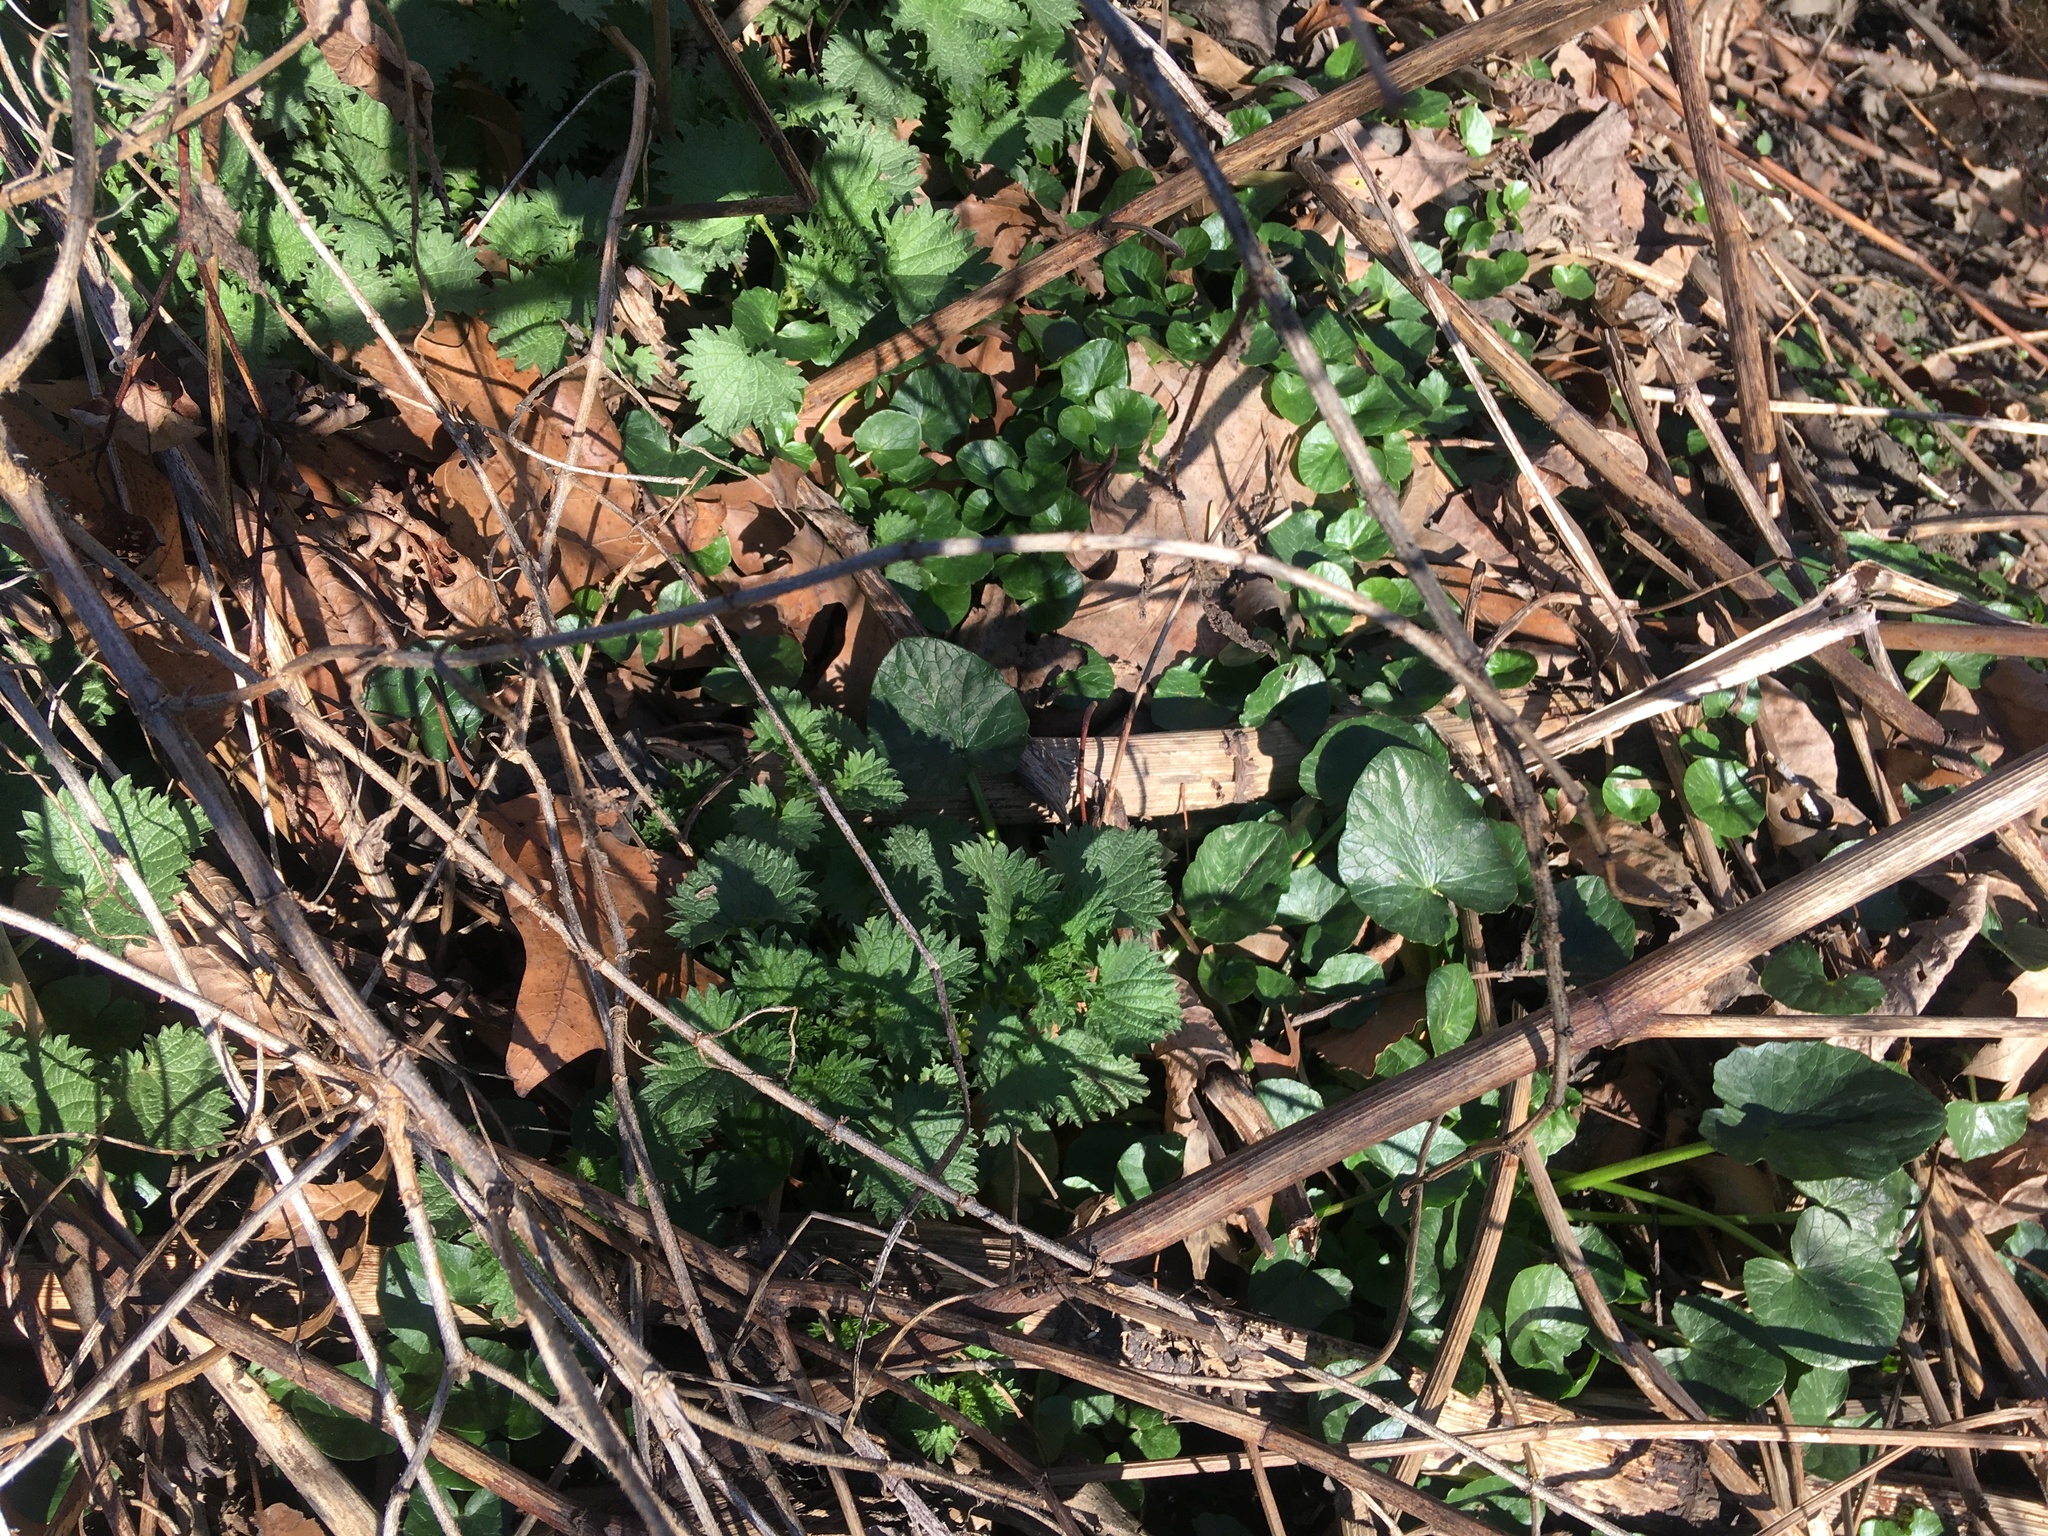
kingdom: Plantae
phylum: Tracheophyta
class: Magnoliopsida
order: Ranunculales
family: Ranunculaceae
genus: Ficaria
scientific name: Ficaria verna
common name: Lesser celandine
